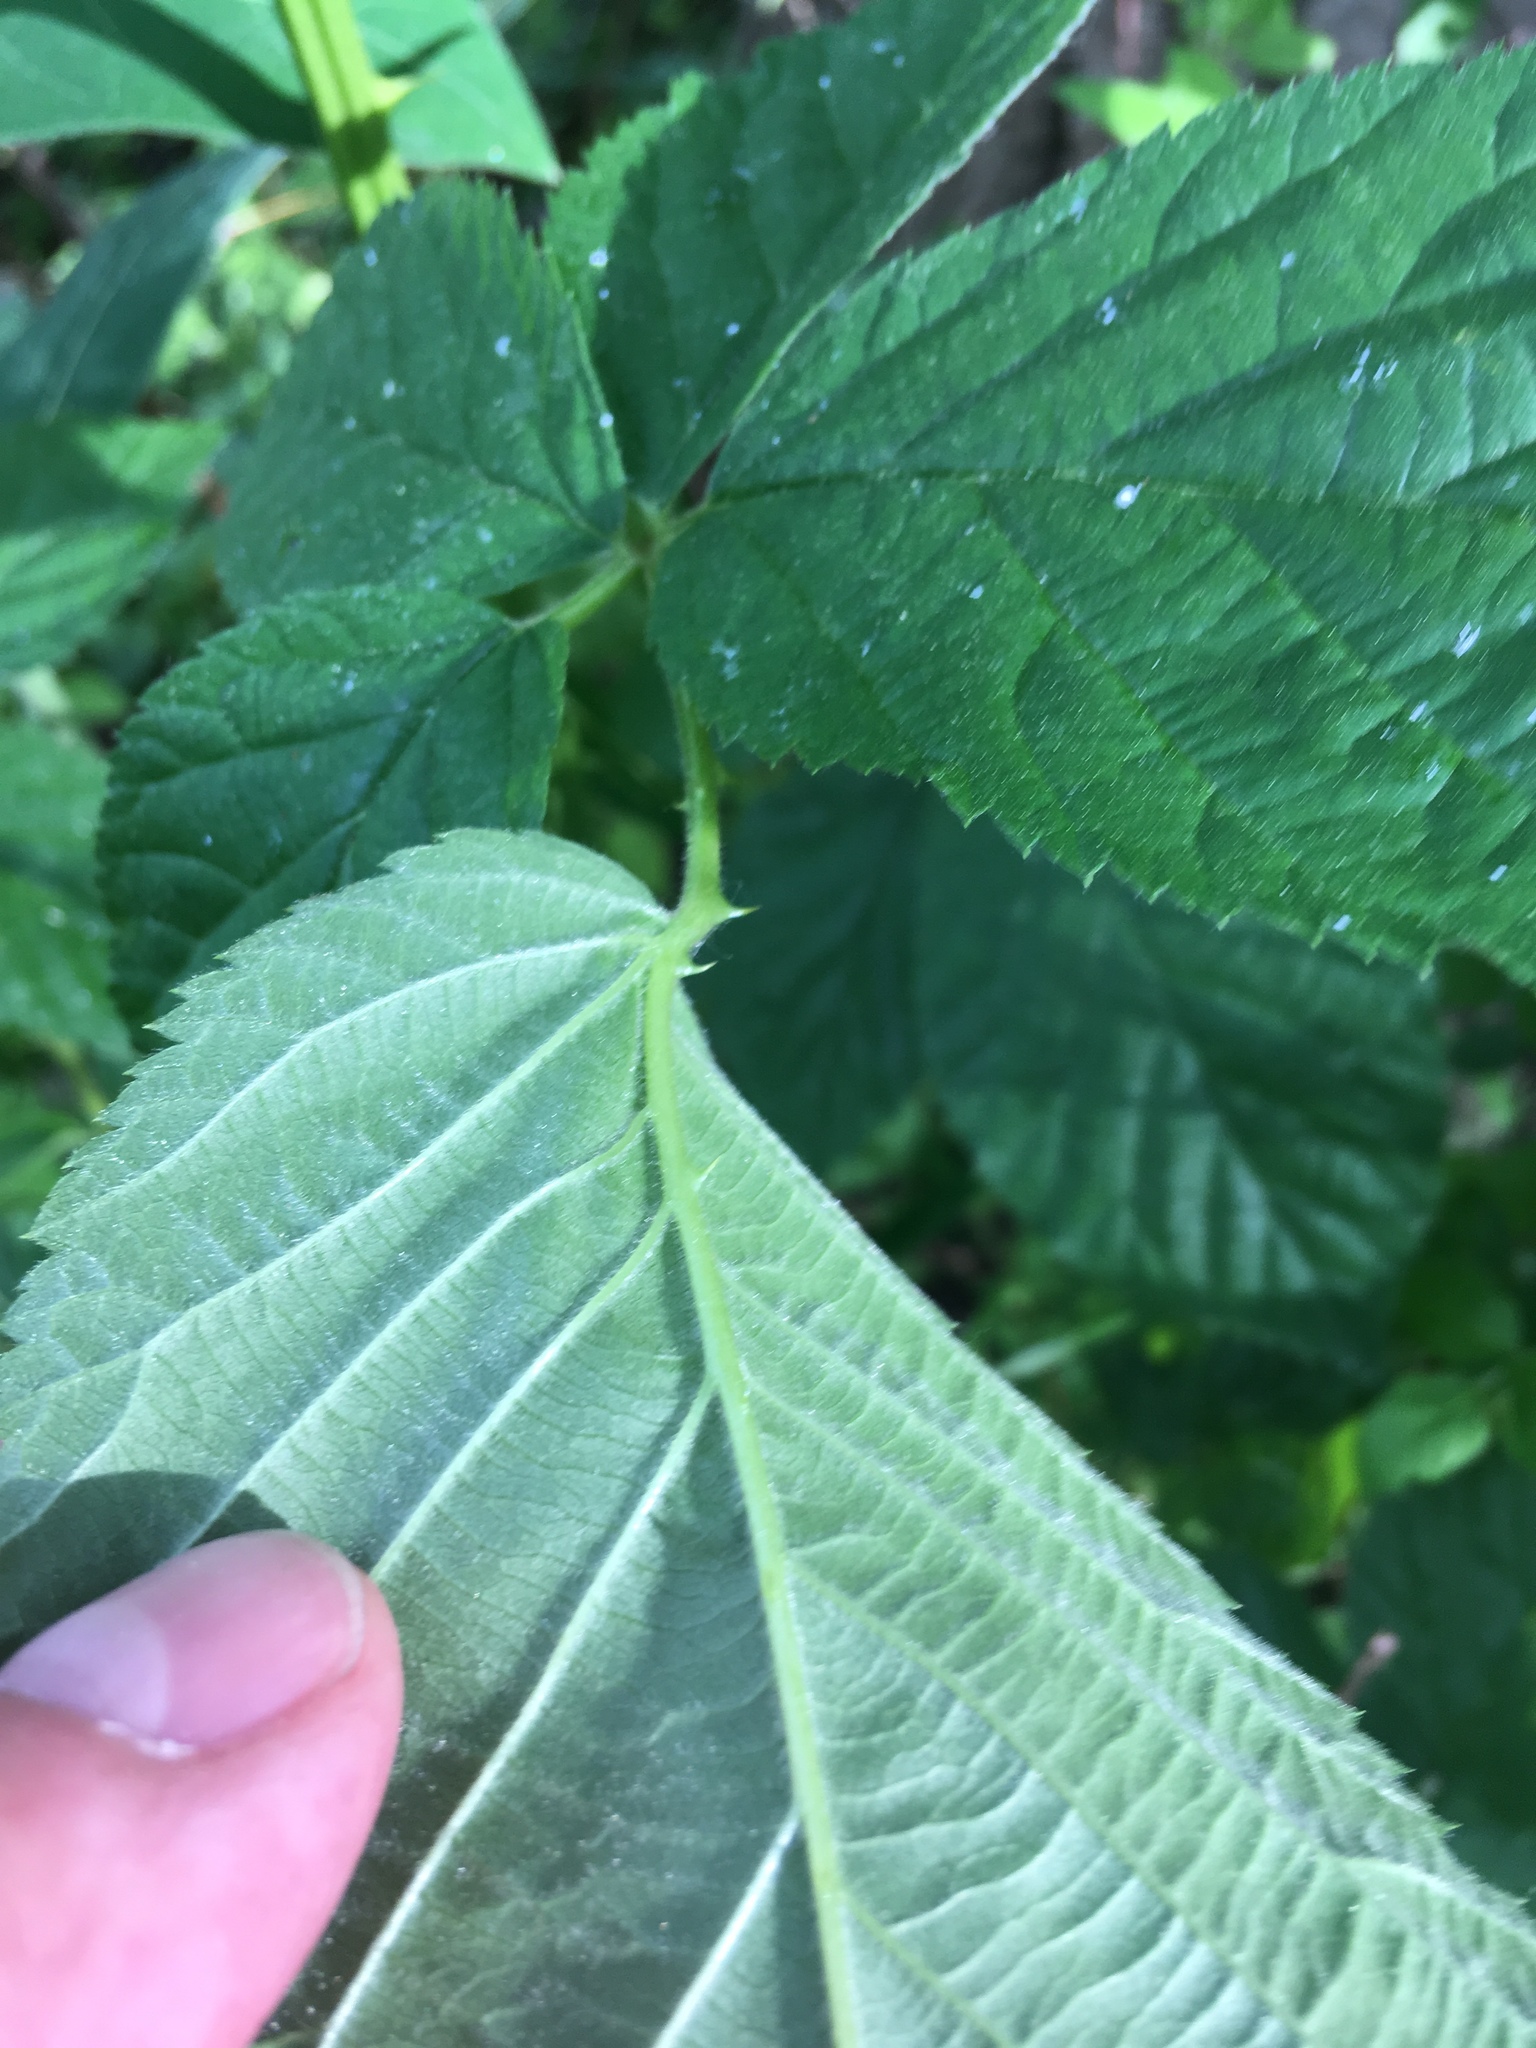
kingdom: Plantae
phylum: Tracheophyta
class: Magnoliopsida
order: Rosales
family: Rosaceae
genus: Rubus
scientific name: Rubus pensilvanicus
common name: Pennsylvania blackberry
